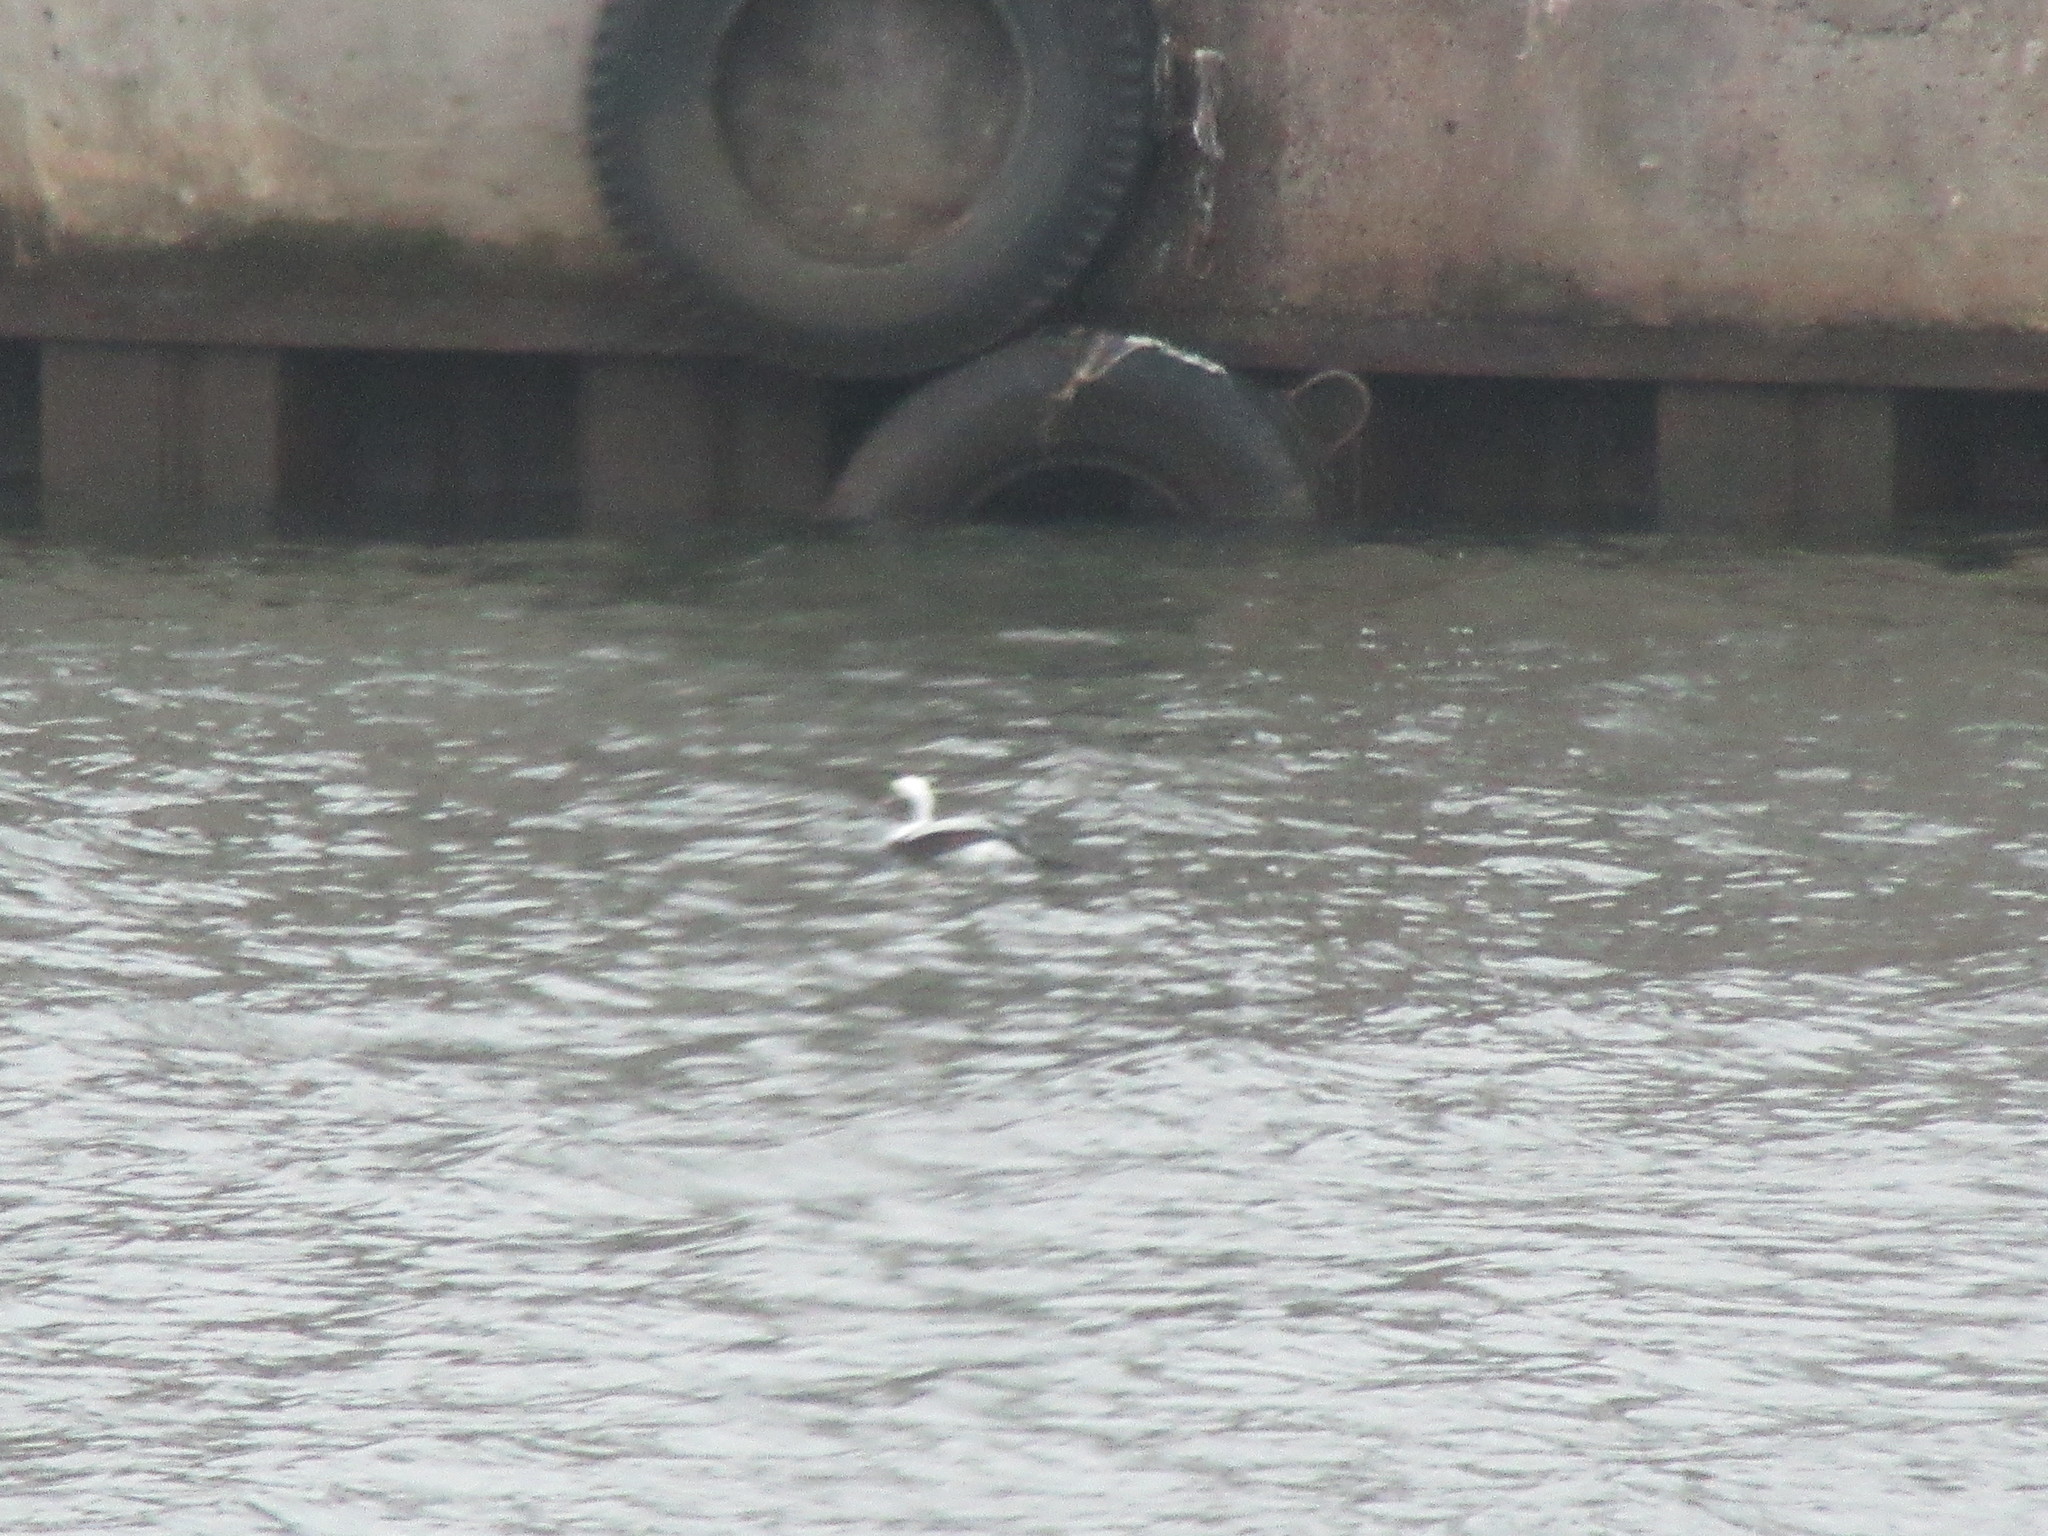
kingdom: Animalia
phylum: Chordata
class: Aves
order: Anseriformes
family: Anatidae
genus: Clangula
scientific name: Clangula hyemalis
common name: Long-tailed duck
